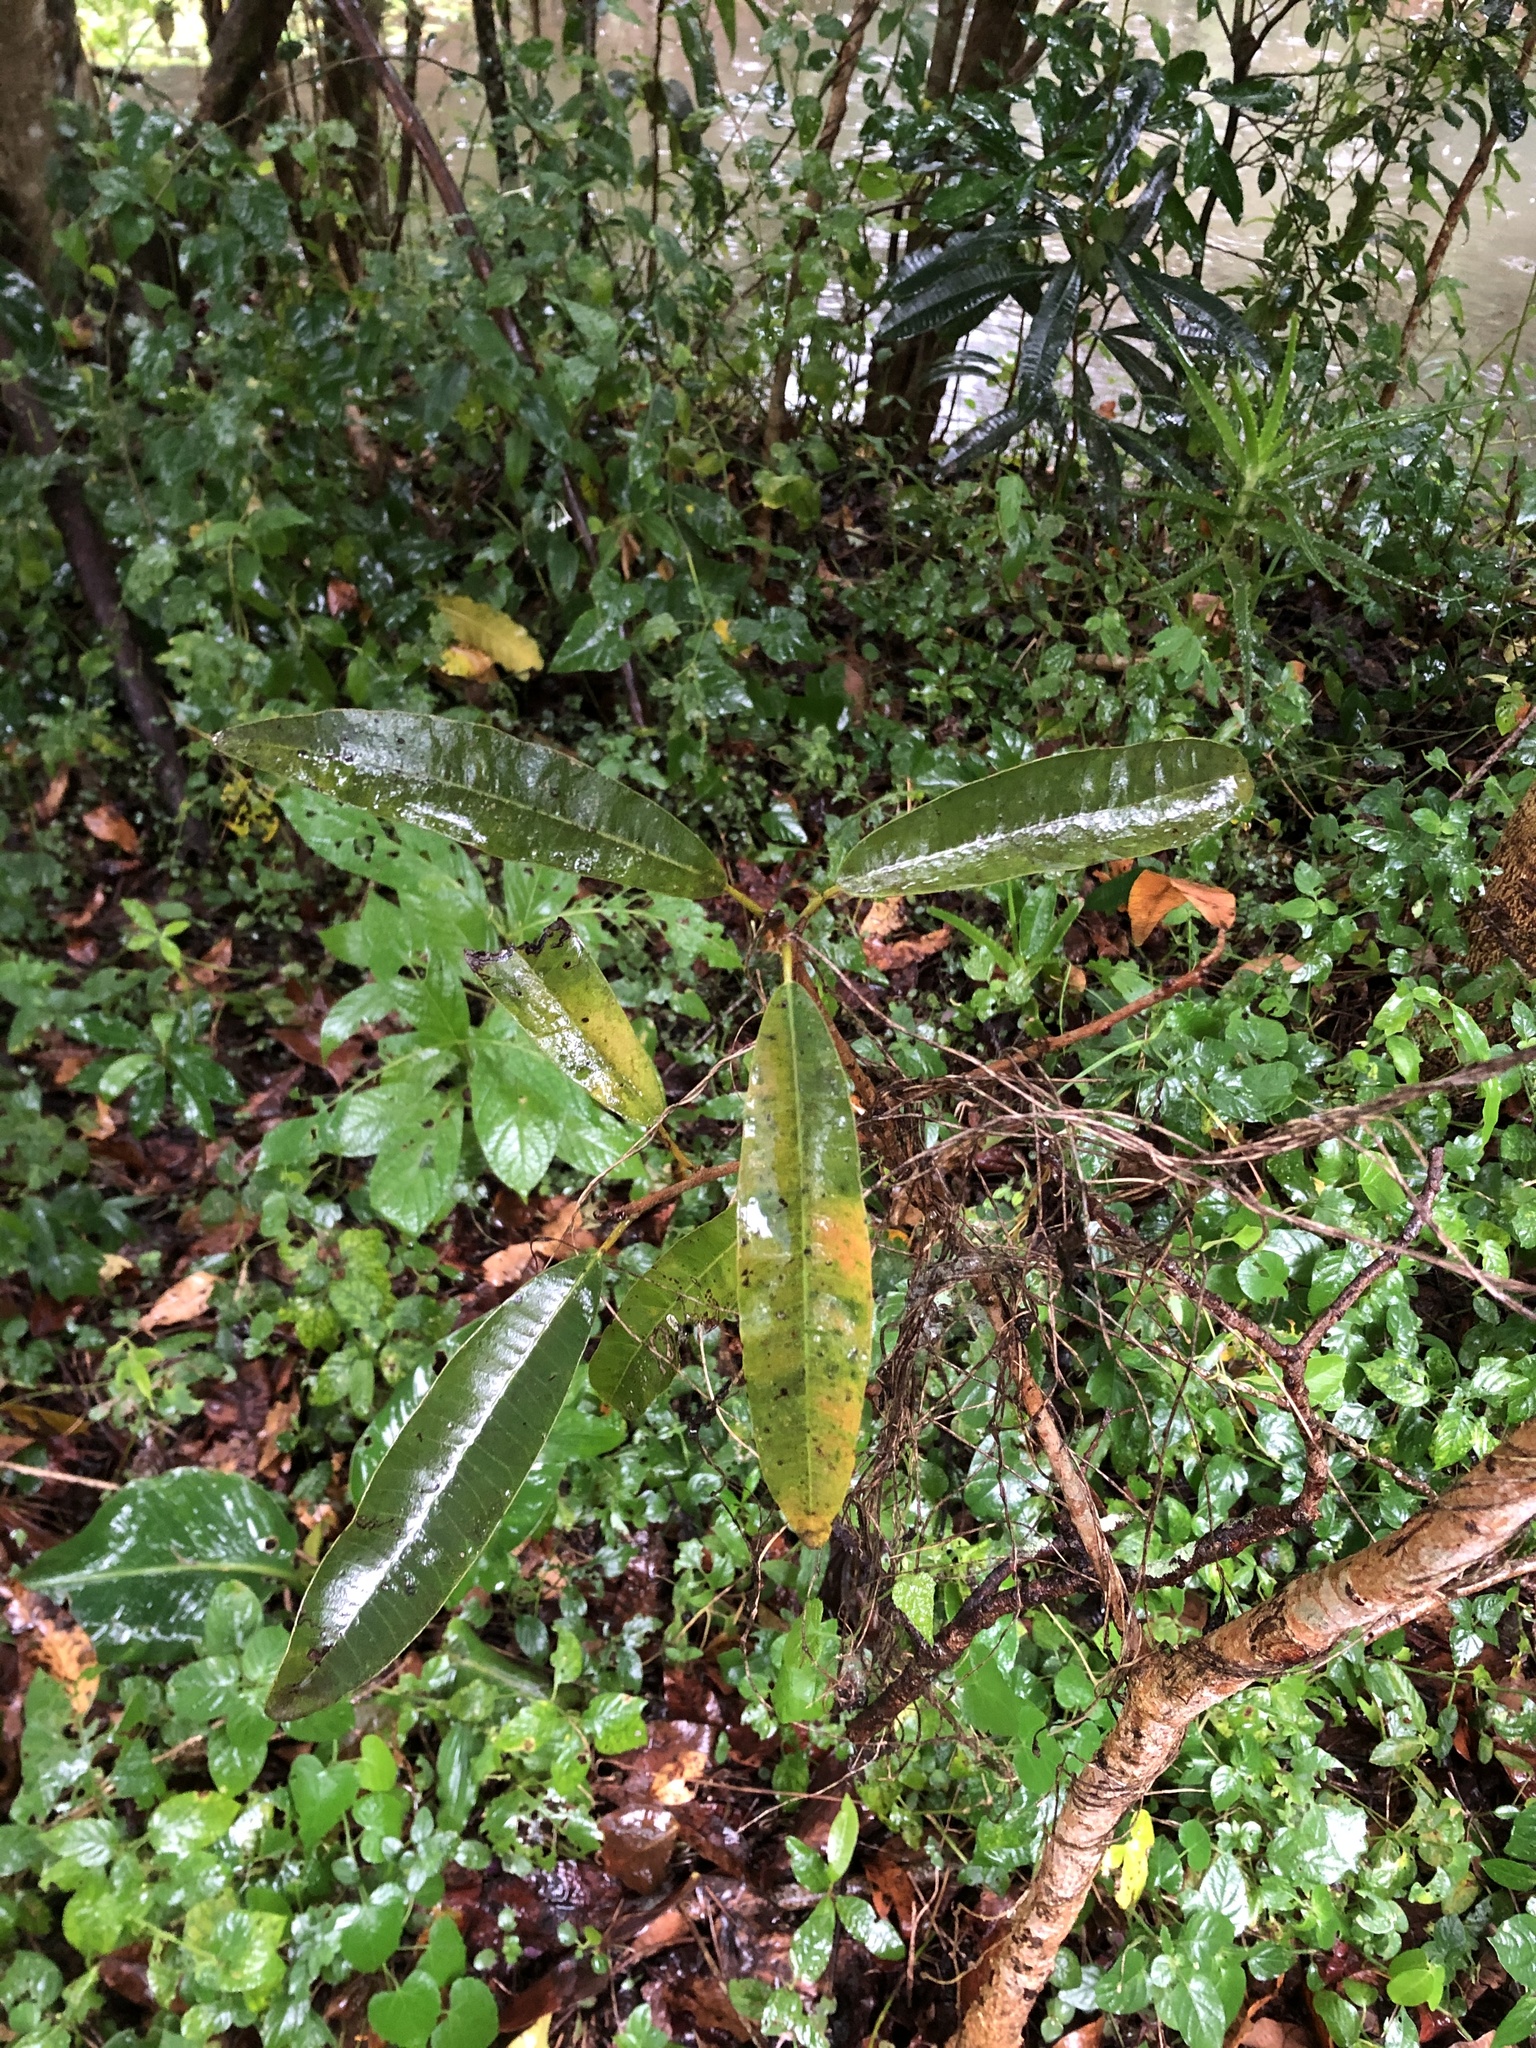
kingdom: Plantae
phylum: Tracheophyta
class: Magnoliopsida
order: Sapindales
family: Anacardiaceae
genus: Protorhus
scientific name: Protorhus longifolia
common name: Red-beech
